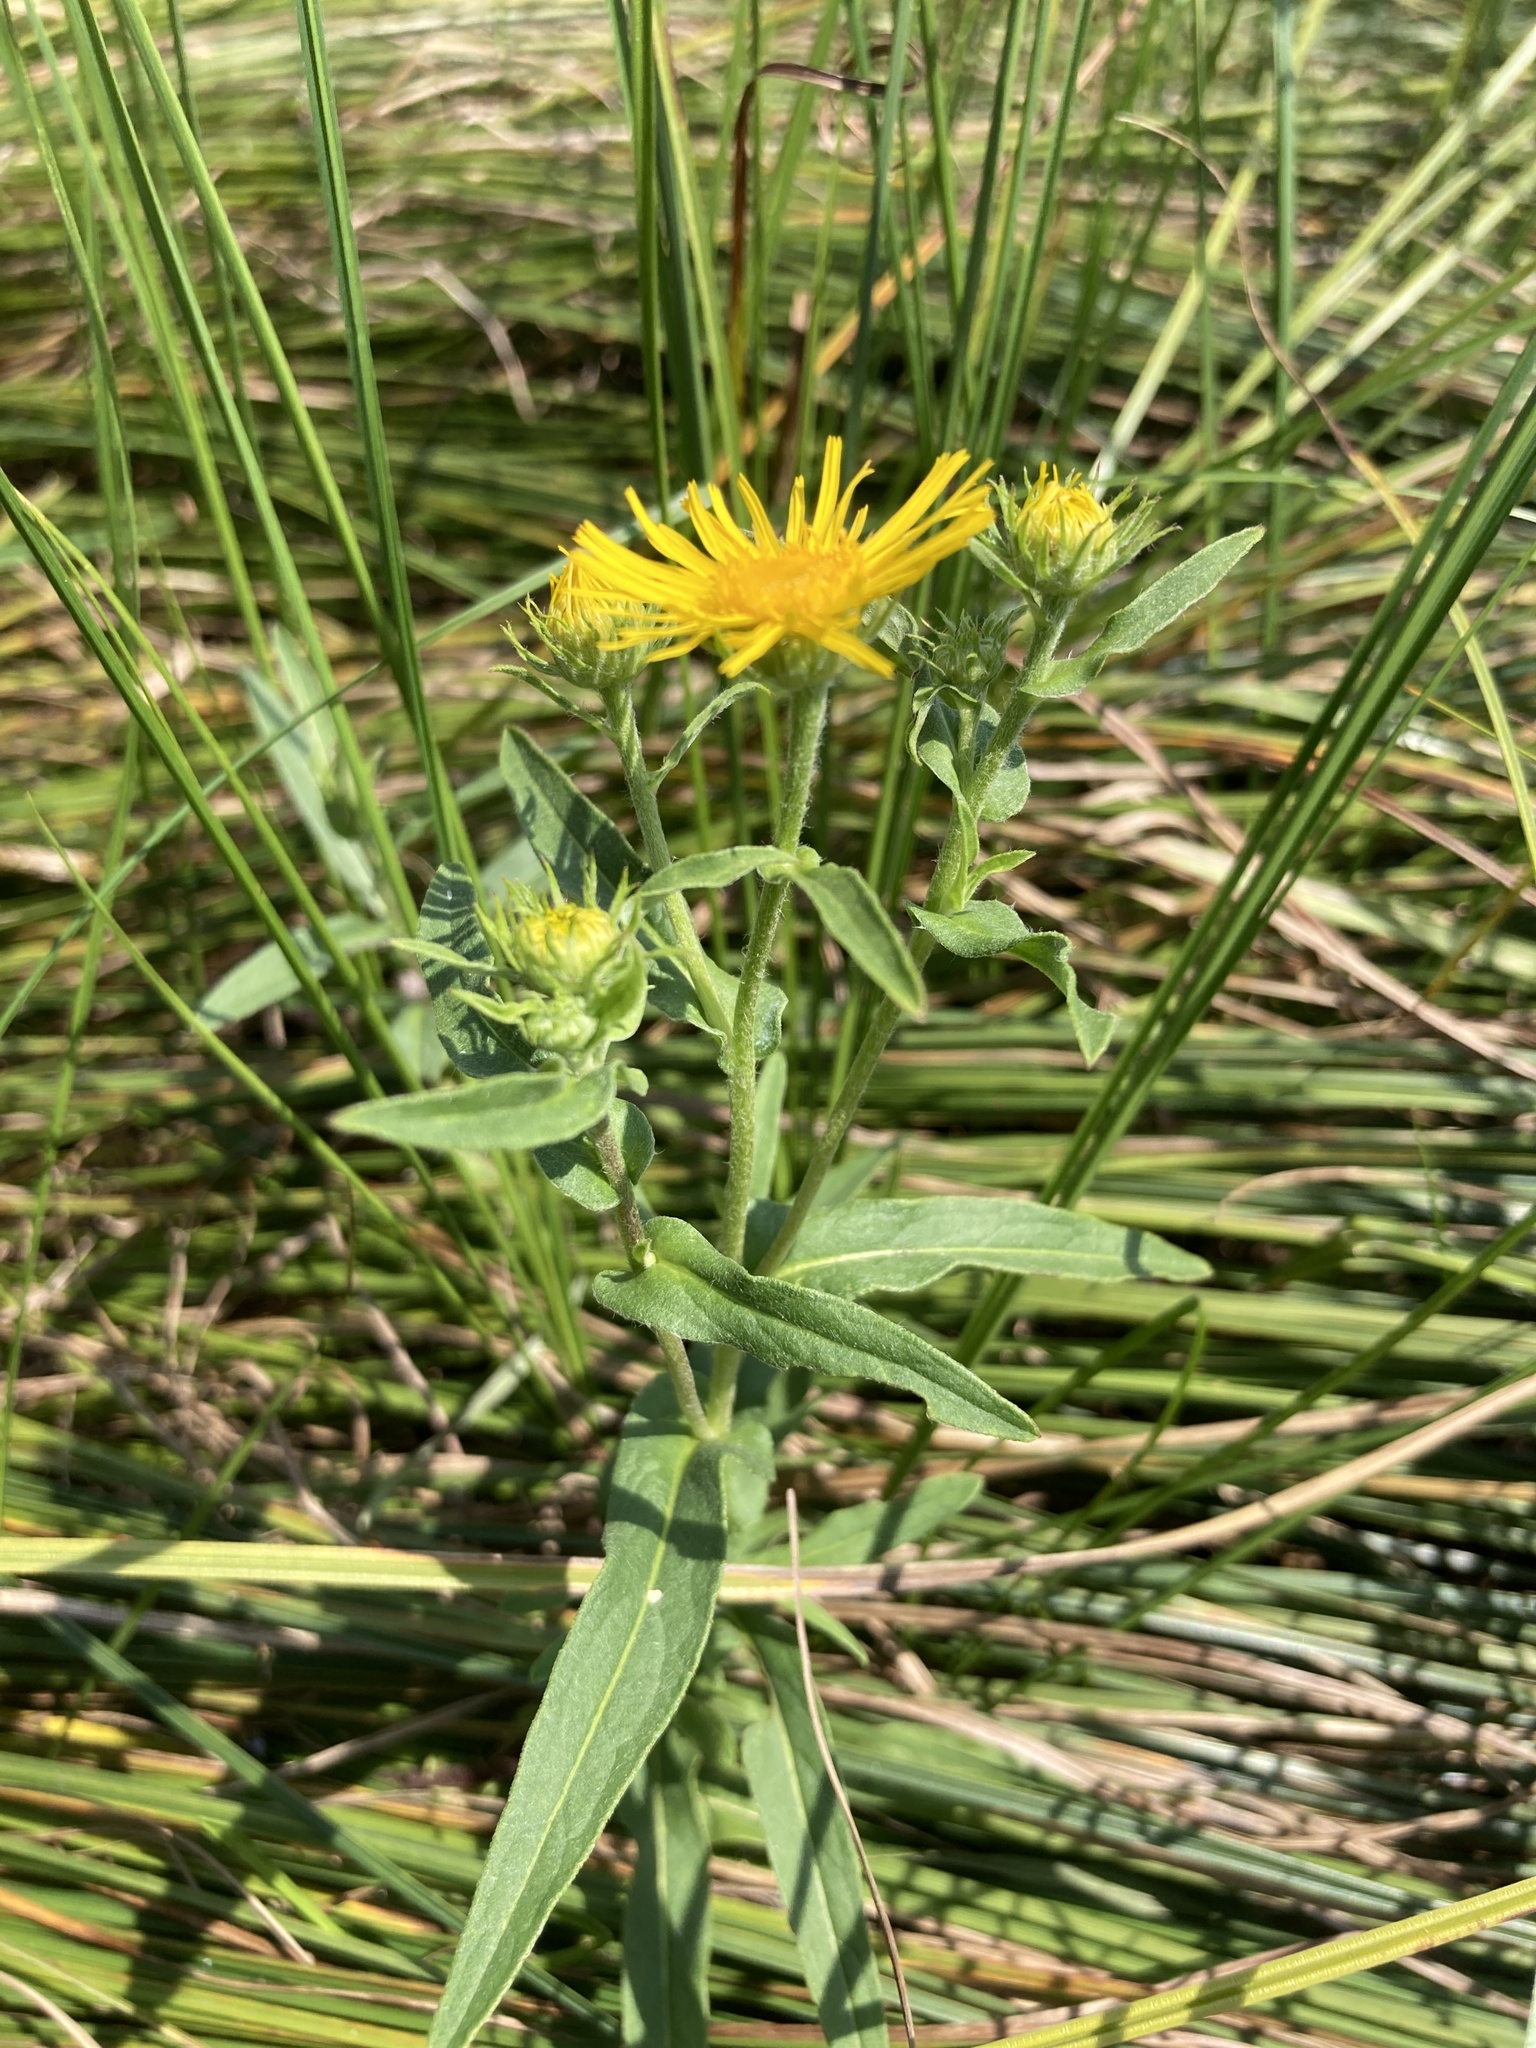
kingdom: Plantae
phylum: Tracheophyta
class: Magnoliopsida
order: Asterales
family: Asteraceae
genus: Pentanema
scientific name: Pentanema britannicum
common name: British elecampane
